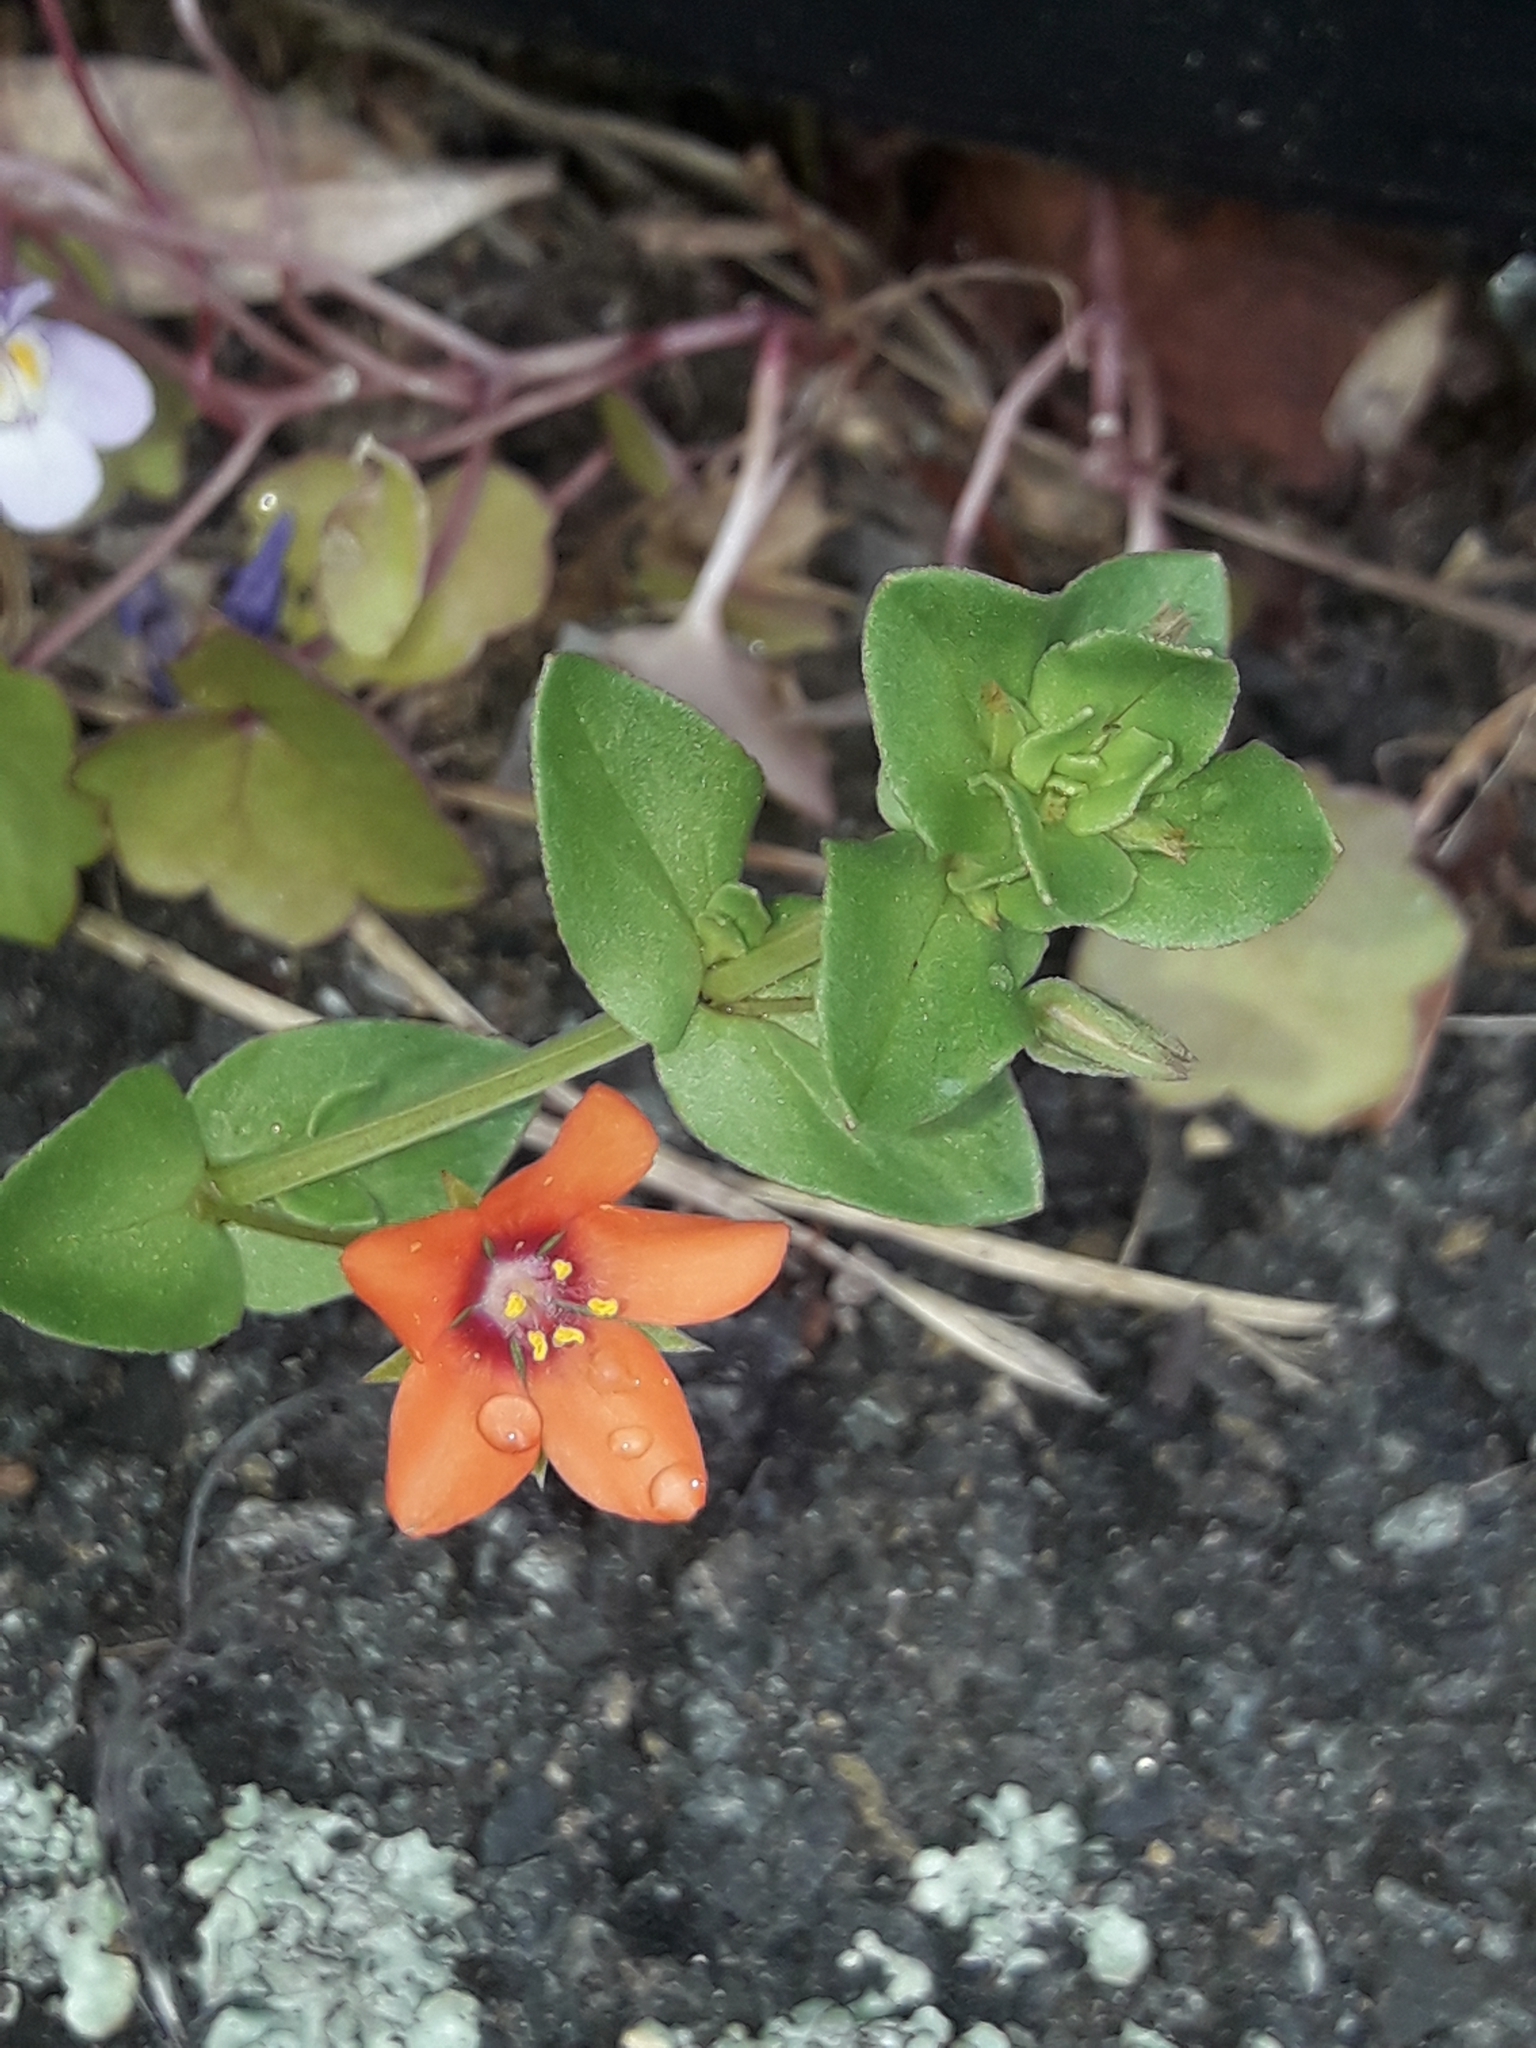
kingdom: Plantae
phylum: Tracheophyta
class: Magnoliopsida
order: Ericales
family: Primulaceae
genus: Lysimachia
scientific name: Lysimachia arvensis
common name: Scarlet pimpernel
